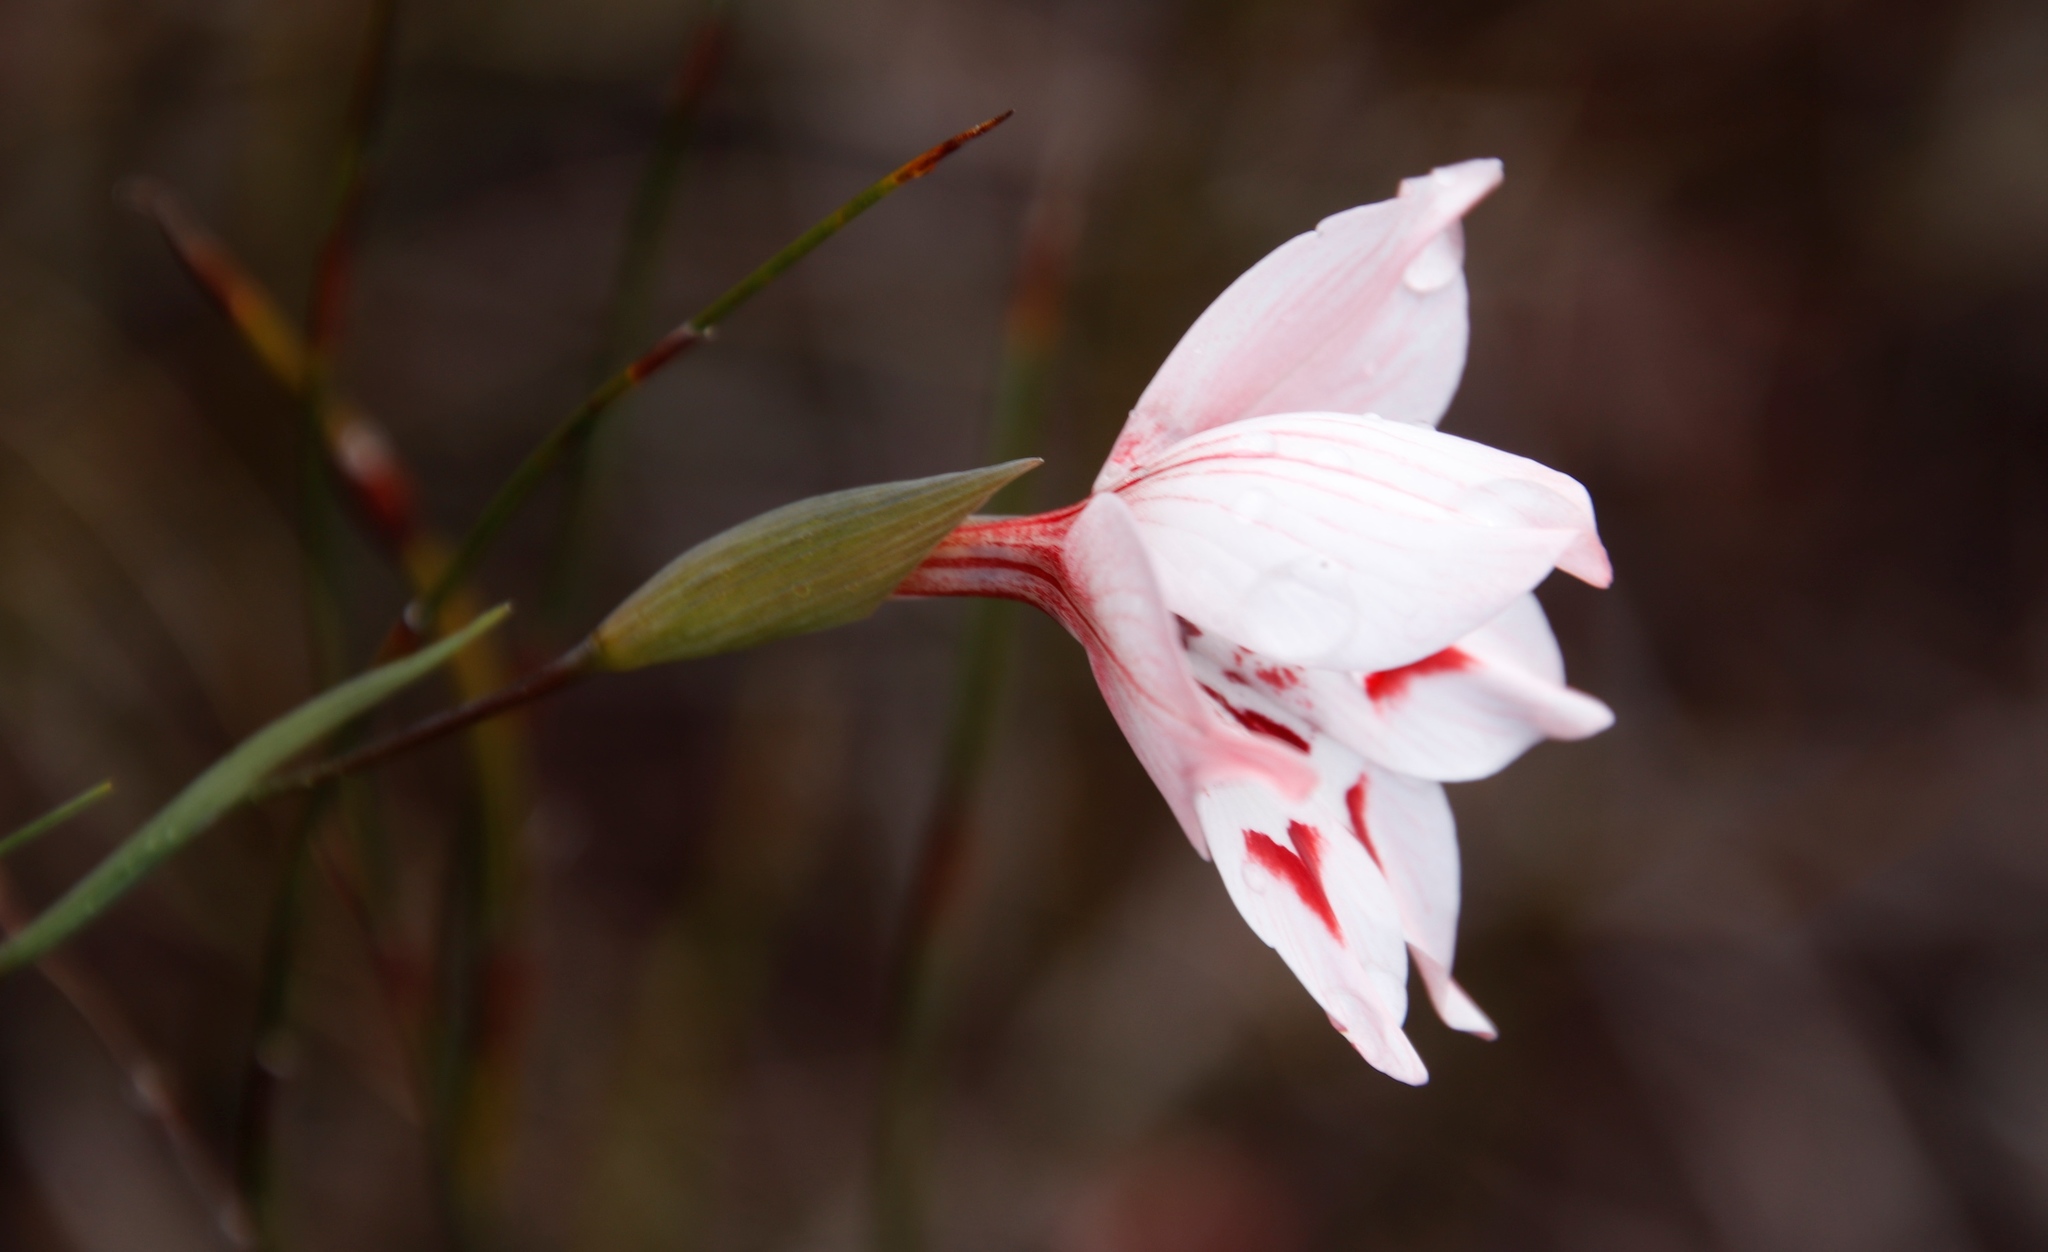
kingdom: Plantae
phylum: Tracheophyta
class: Liliopsida
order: Asparagales
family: Iridaceae
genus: Gladiolus
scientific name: Gladiolus debilis
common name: Painted-lady
